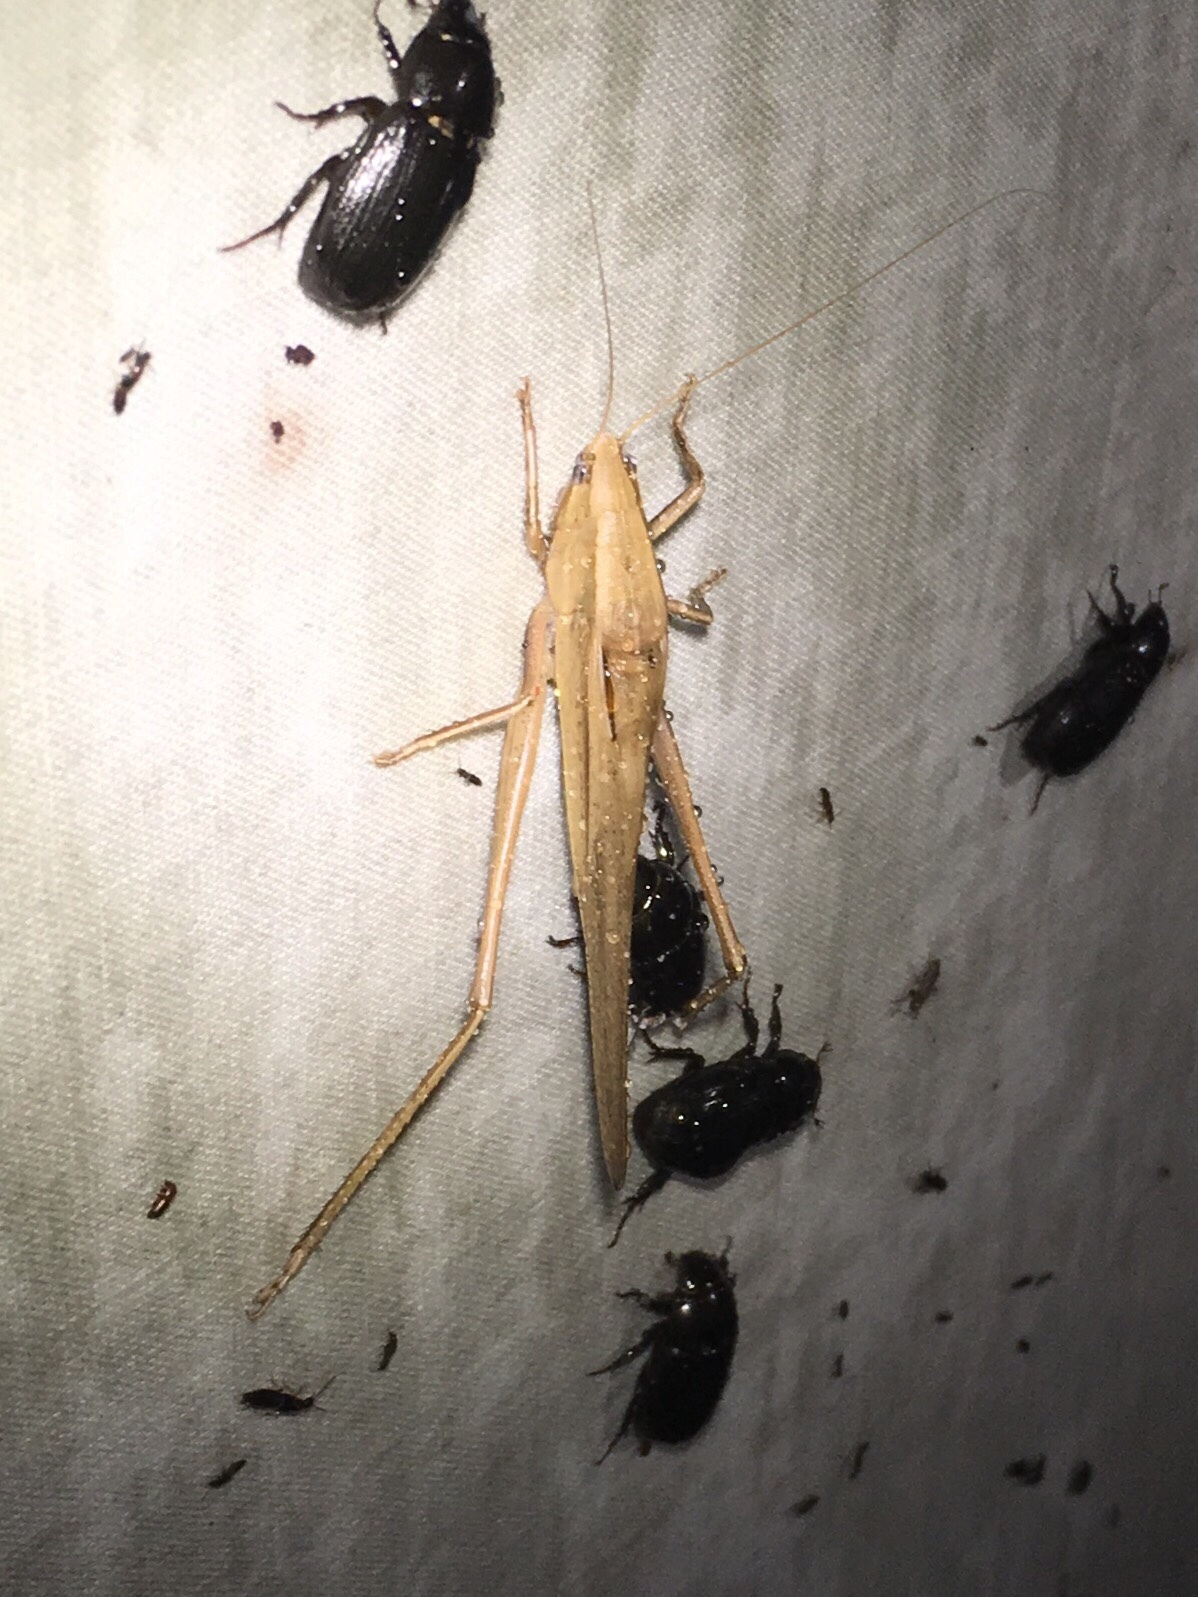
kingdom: Animalia
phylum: Arthropoda
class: Insecta
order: Orthoptera
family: Tettigoniidae
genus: Neoconocephalus
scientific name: Neoconocephalus triops
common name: Broad-tipped conehead
